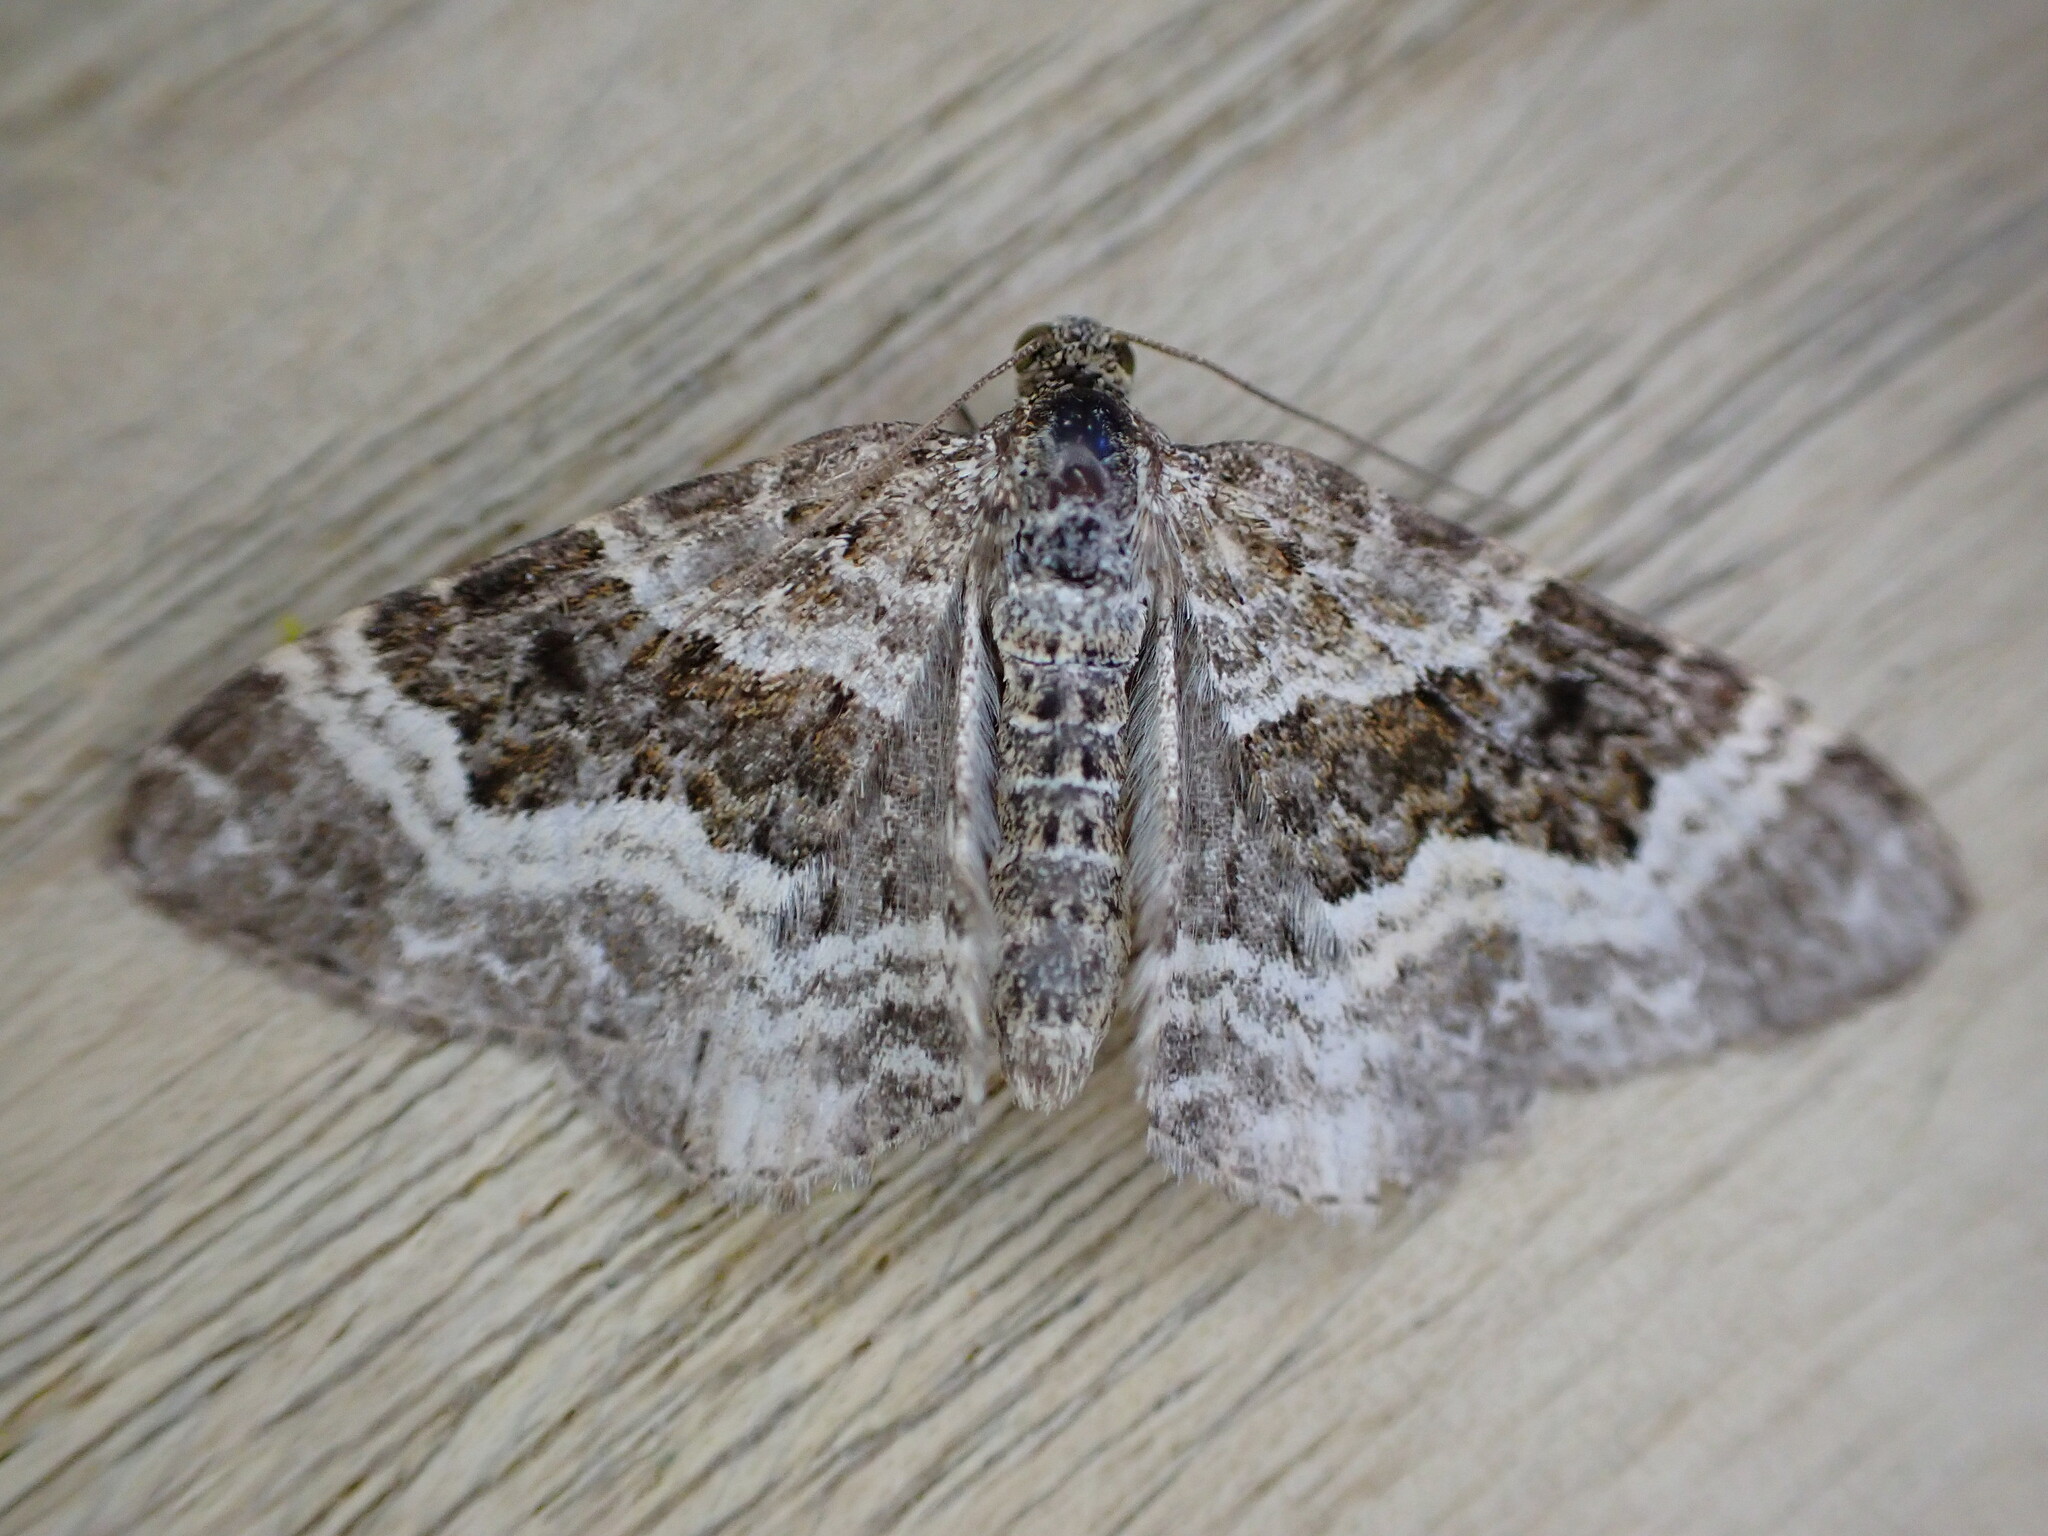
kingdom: Animalia
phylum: Arthropoda
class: Insecta
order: Lepidoptera
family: Geometridae
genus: Epirrhoe
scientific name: Epirrhoe alternata
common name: Common carpet
